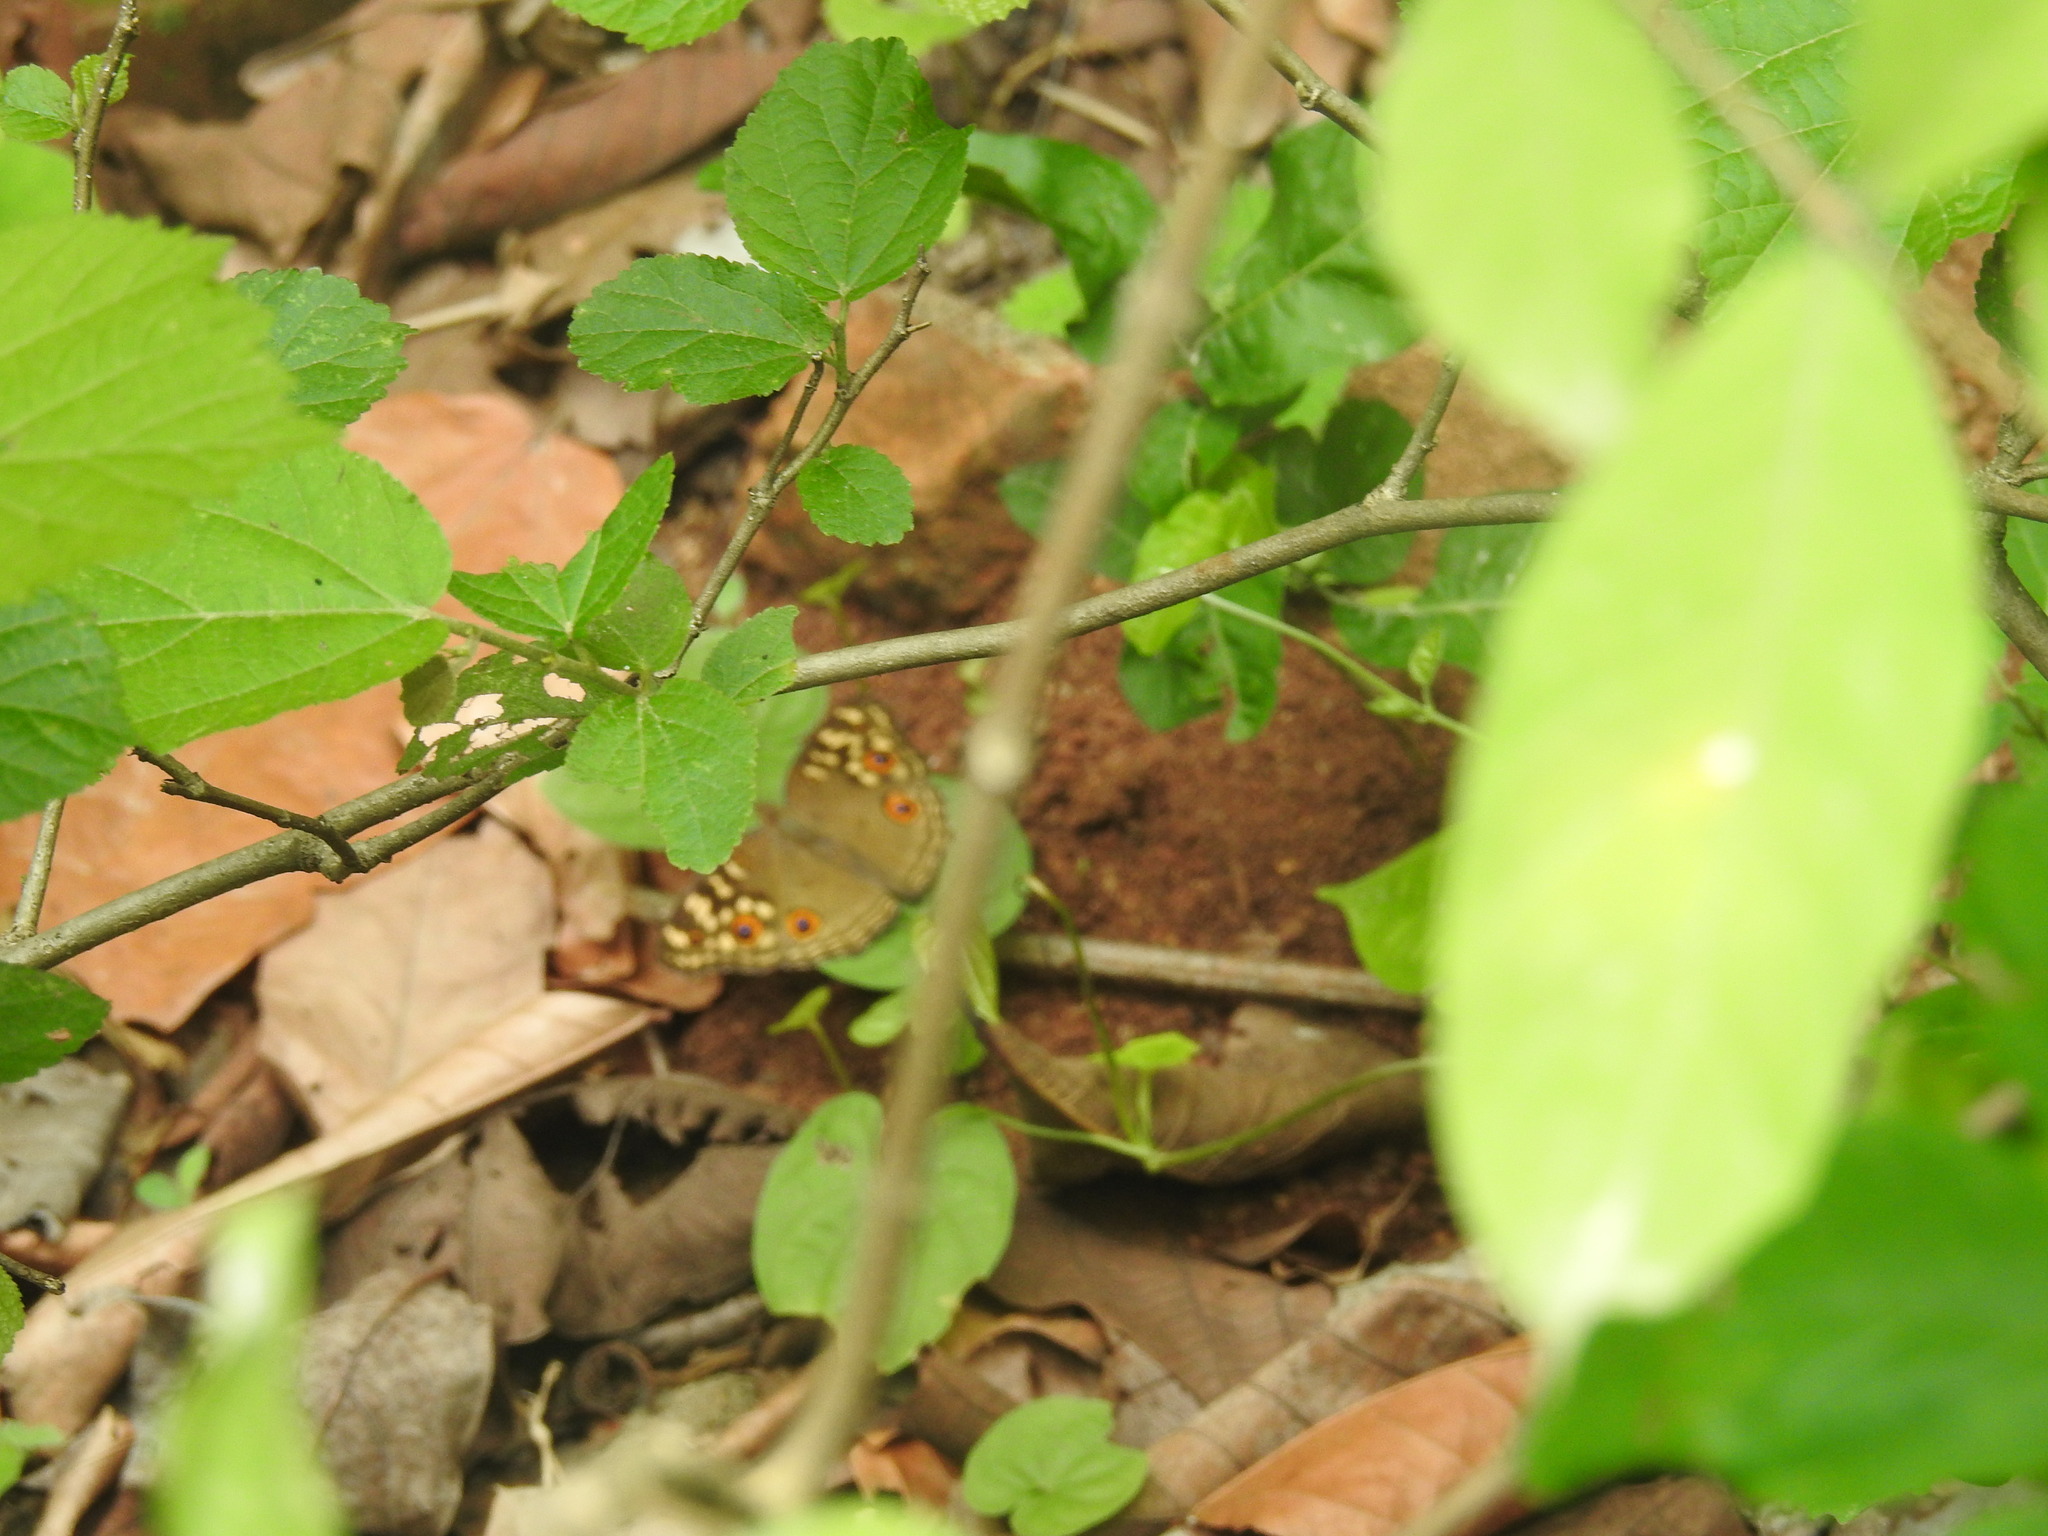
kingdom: Animalia
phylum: Arthropoda
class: Insecta
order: Lepidoptera
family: Nymphalidae
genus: Junonia
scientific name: Junonia lemonias
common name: Lemon pansy
